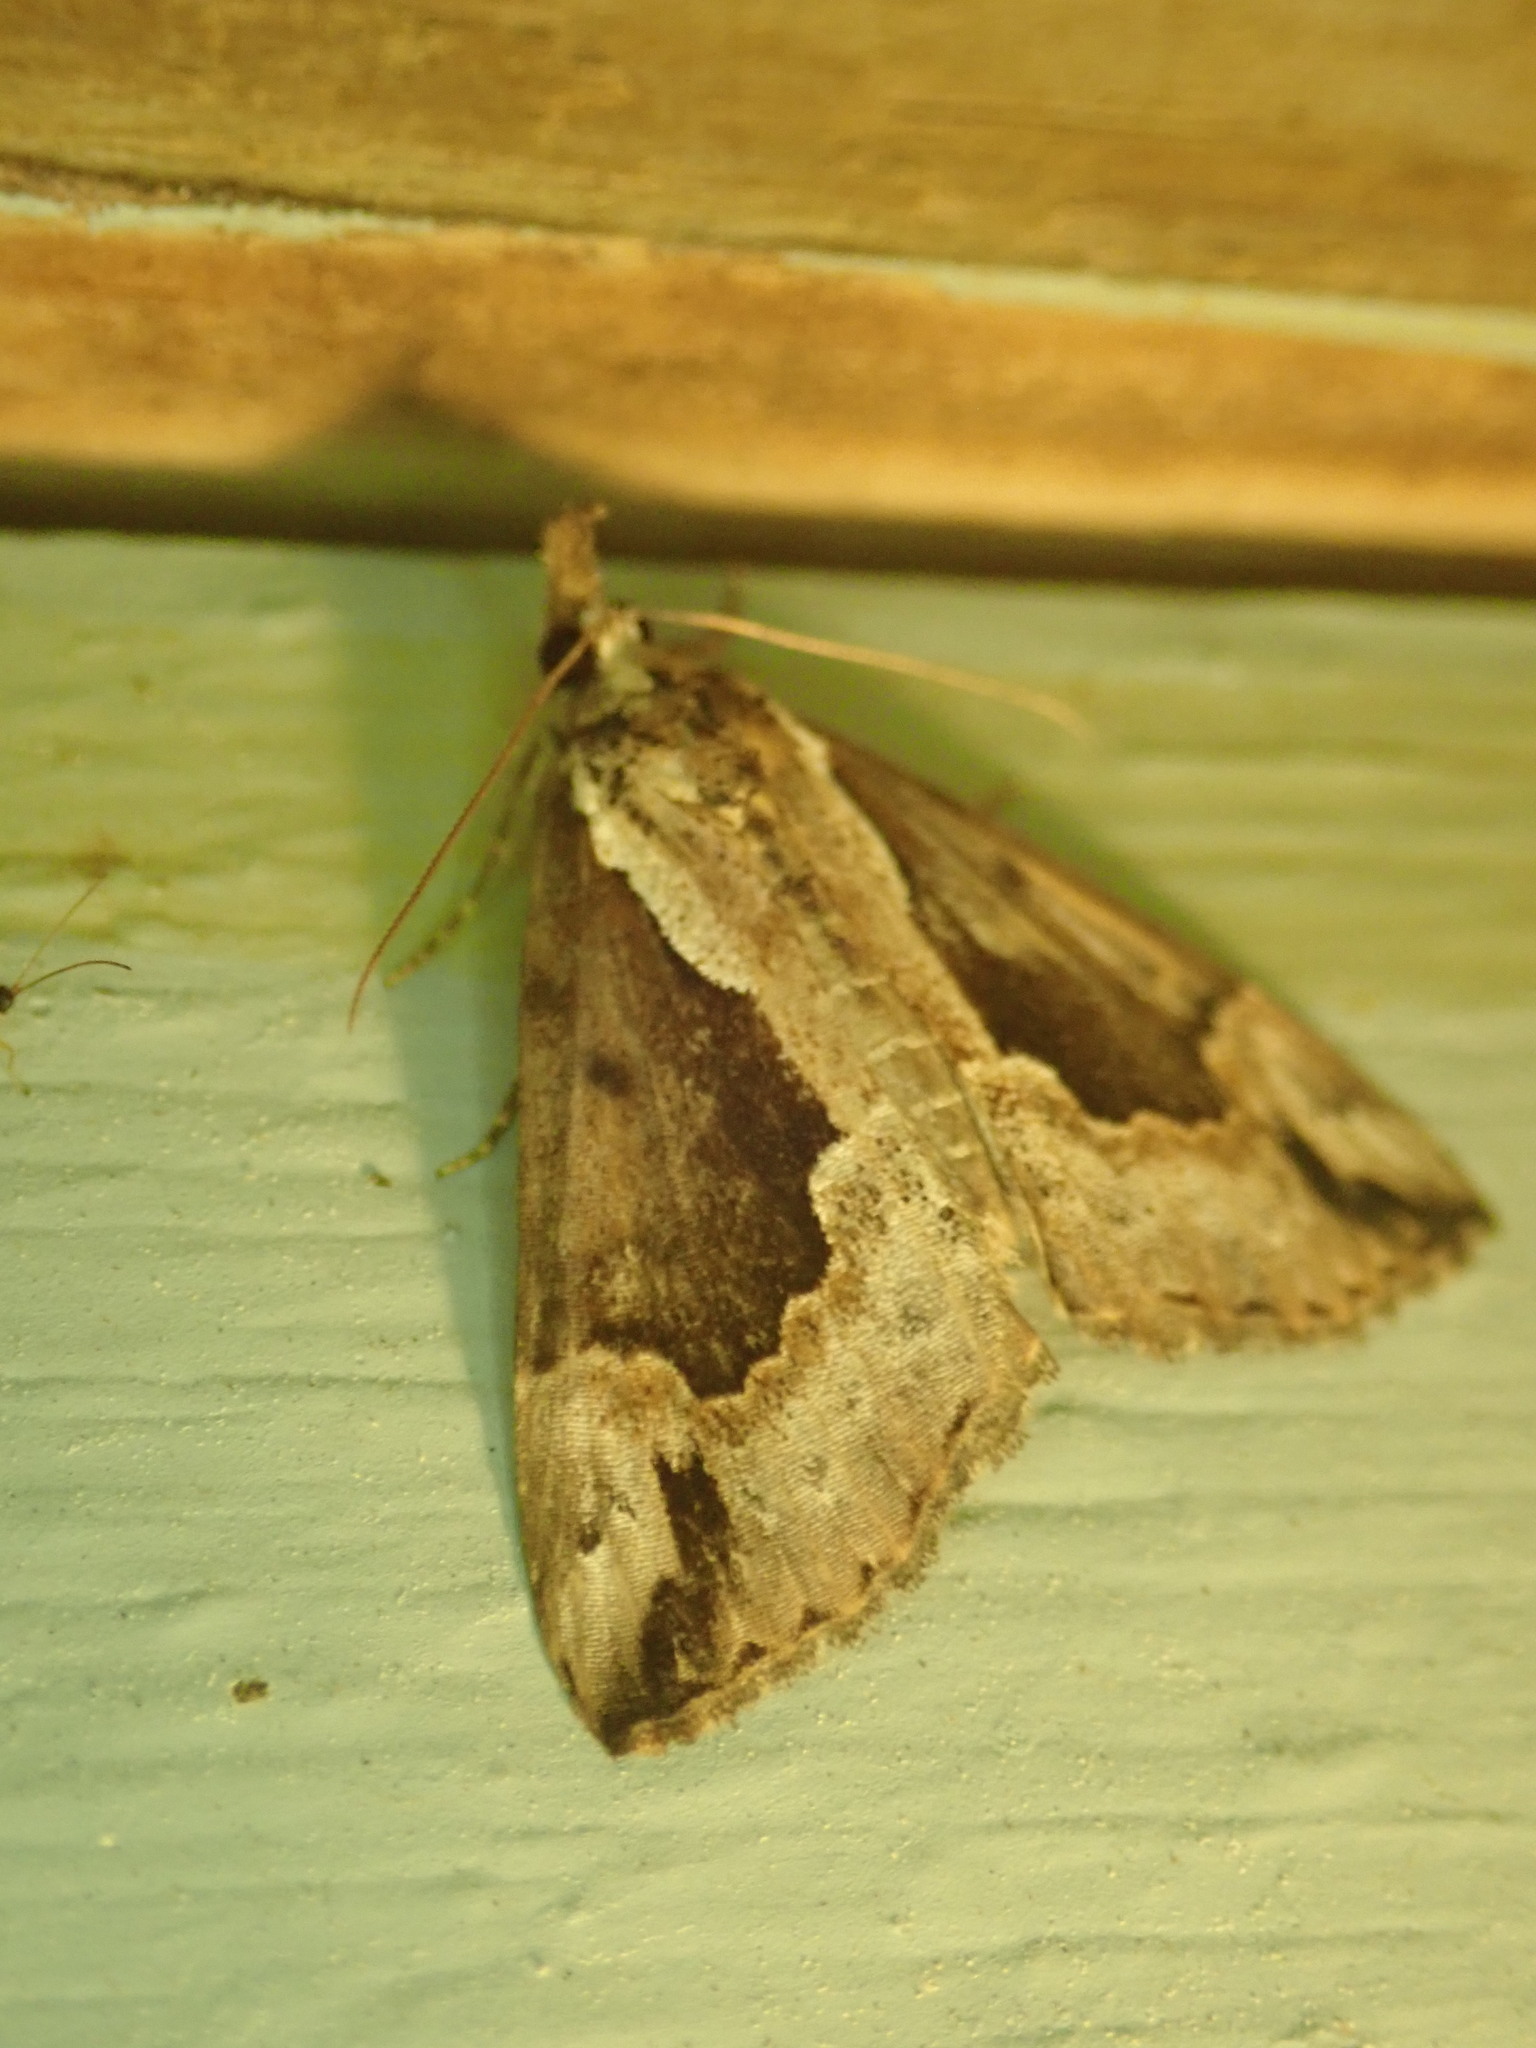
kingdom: Animalia
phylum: Arthropoda
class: Insecta
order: Lepidoptera
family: Erebidae
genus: Hypena
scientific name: Hypena baltimoralis
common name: Baltimore snout
